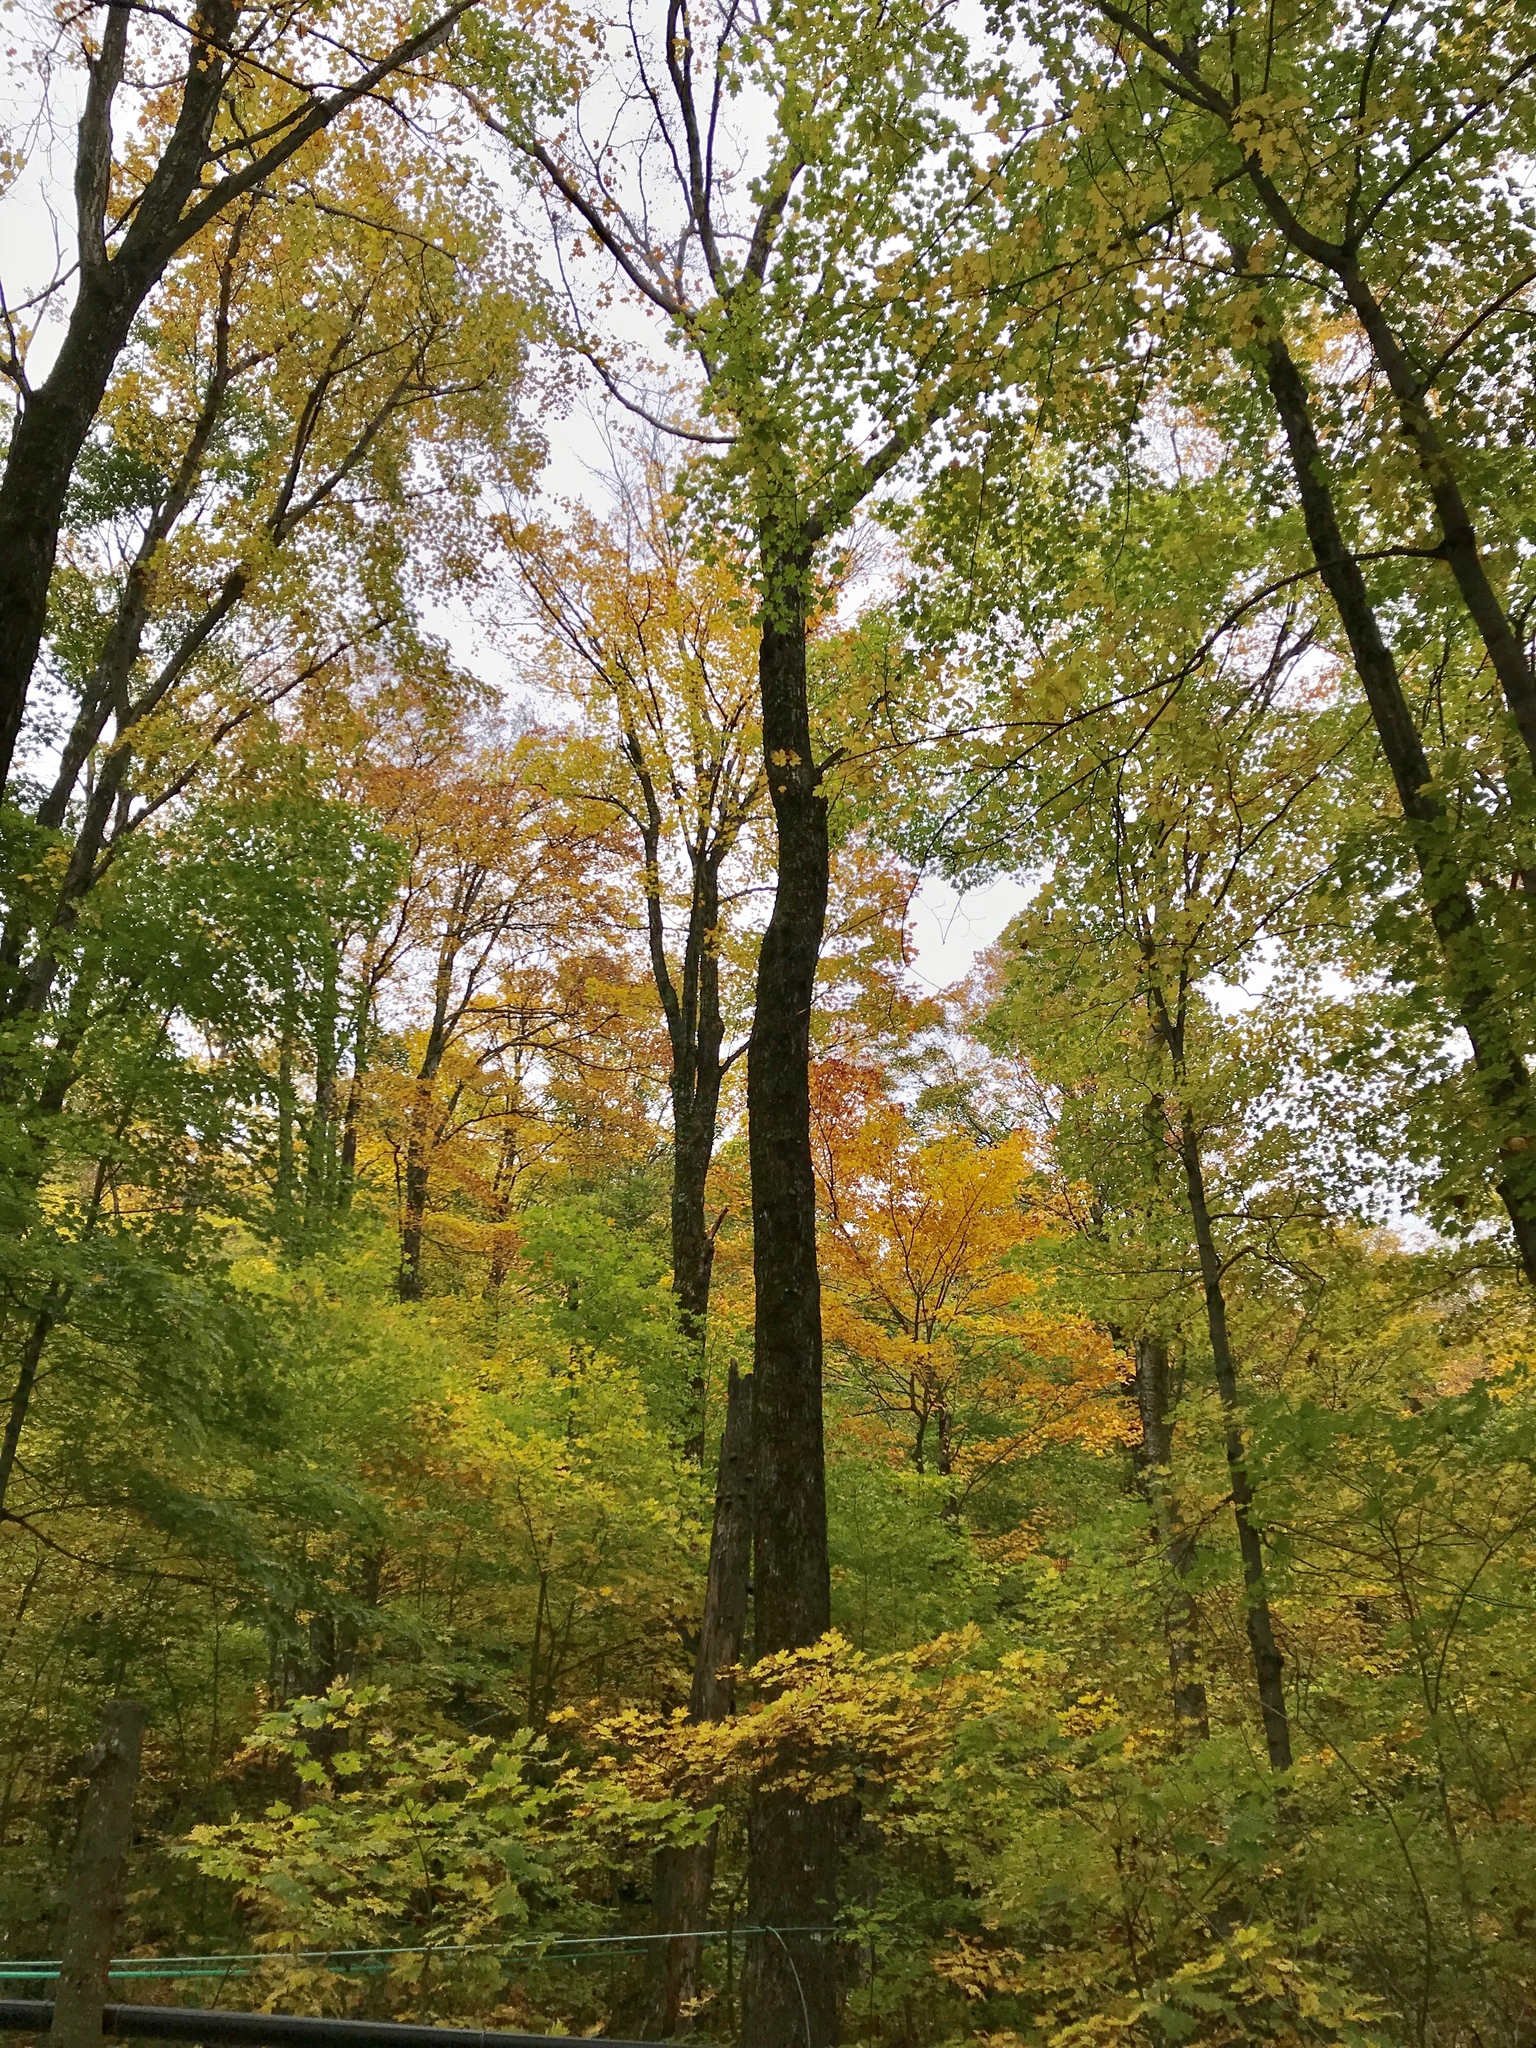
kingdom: Plantae
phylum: Tracheophyta
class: Magnoliopsida
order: Sapindales
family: Sapindaceae
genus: Acer
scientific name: Acer saccharum
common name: Sugar maple
